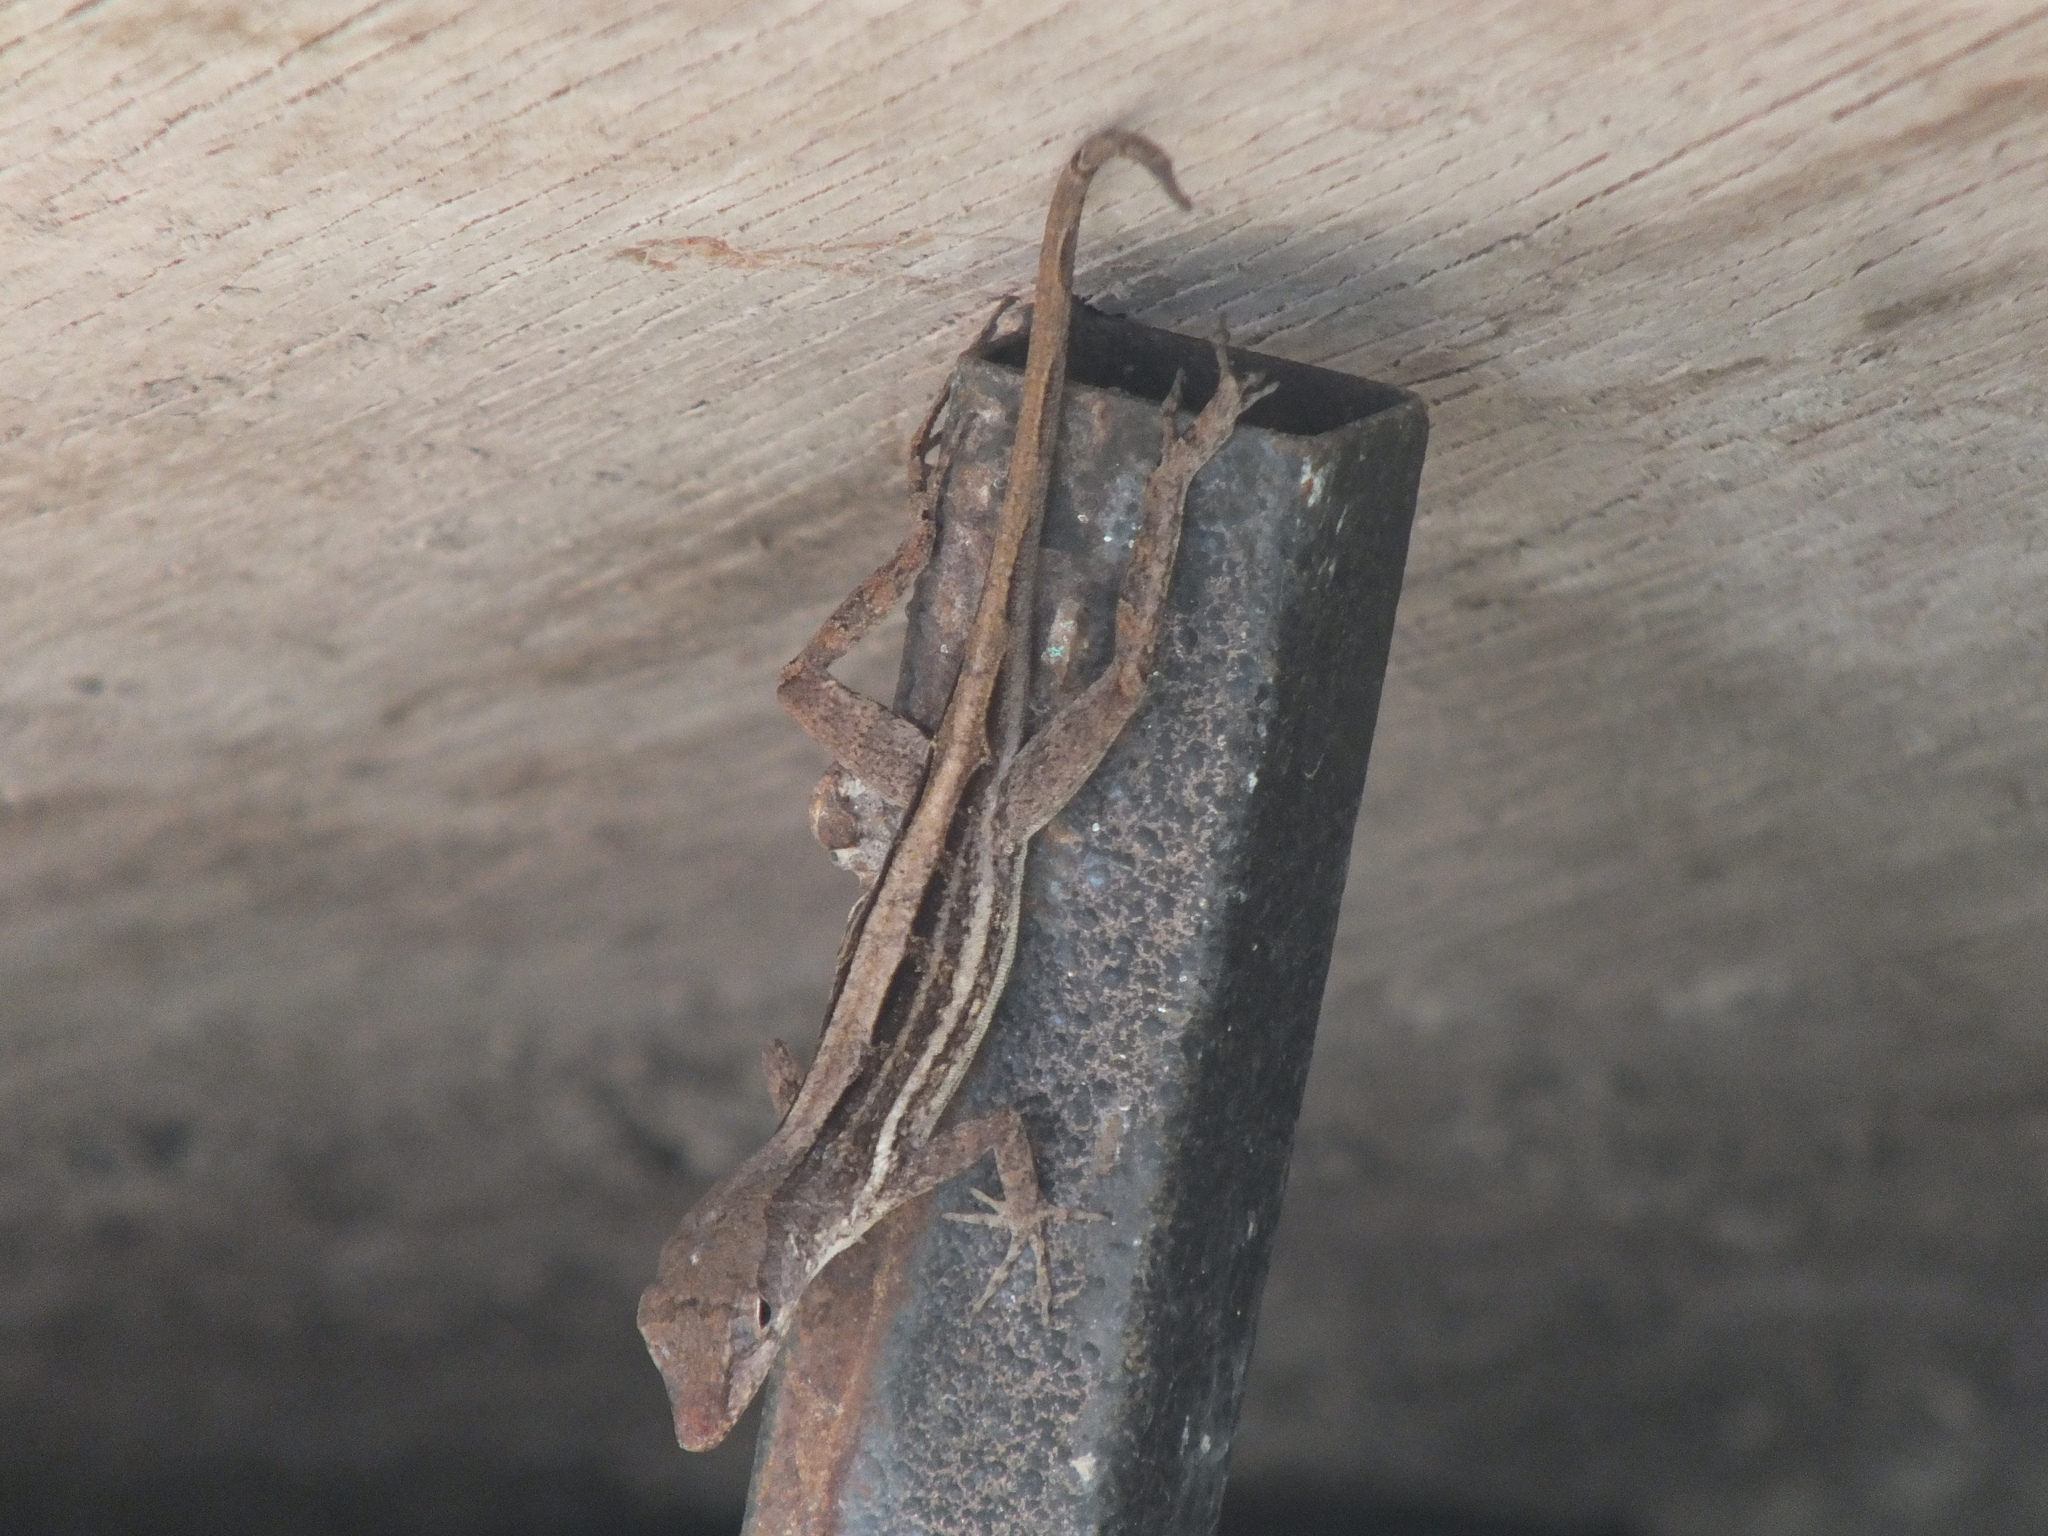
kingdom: Animalia
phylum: Chordata
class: Squamata
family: Dactyloidae
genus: Anolis
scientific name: Anolis lineatopus
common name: Stripefoot anole
